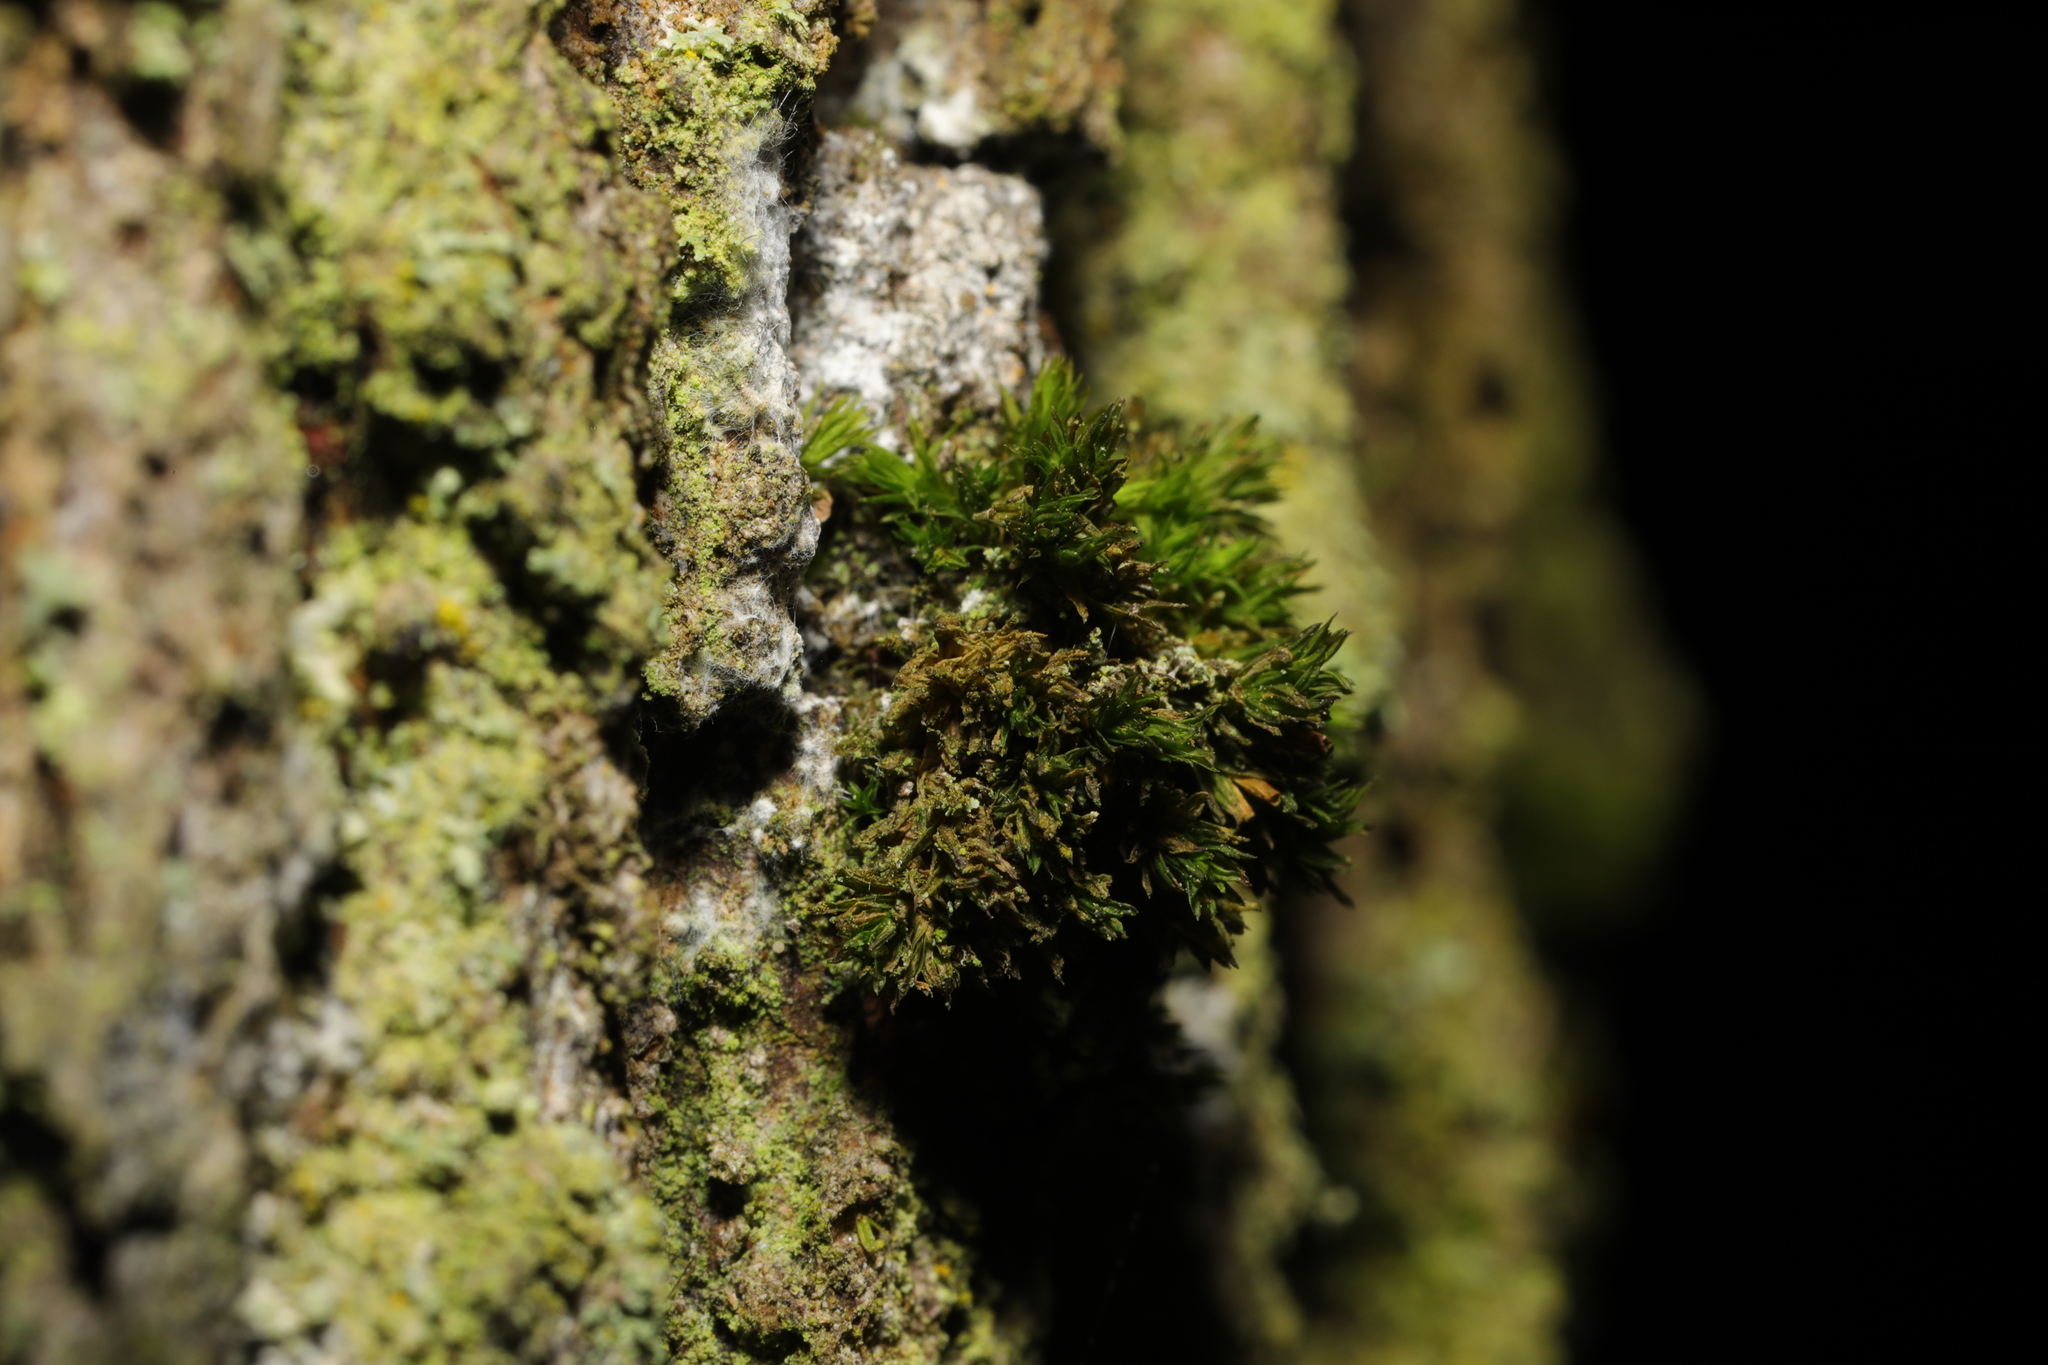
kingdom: Plantae
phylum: Bryophyta
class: Bryopsida
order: Orthotrichales
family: Orthotrichaceae
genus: Lewinskya
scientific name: Lewinskya affinis
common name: Wood bristle-moss
